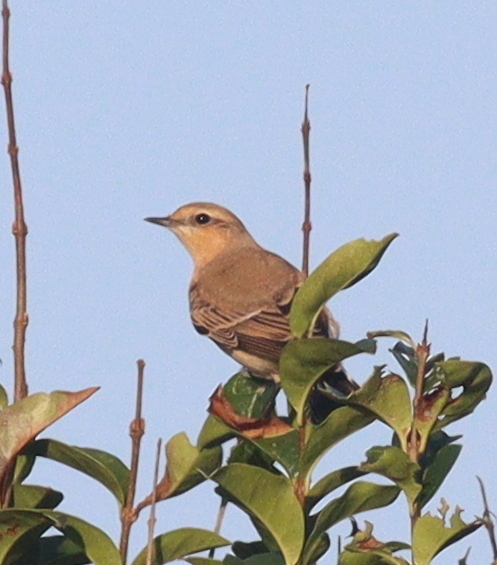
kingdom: Animalia
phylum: Chordata
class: Aves
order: Passeriformes
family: Muscicapidae
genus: Oenanthe
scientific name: Oenanthe oenanthe
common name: Northern wheatear
